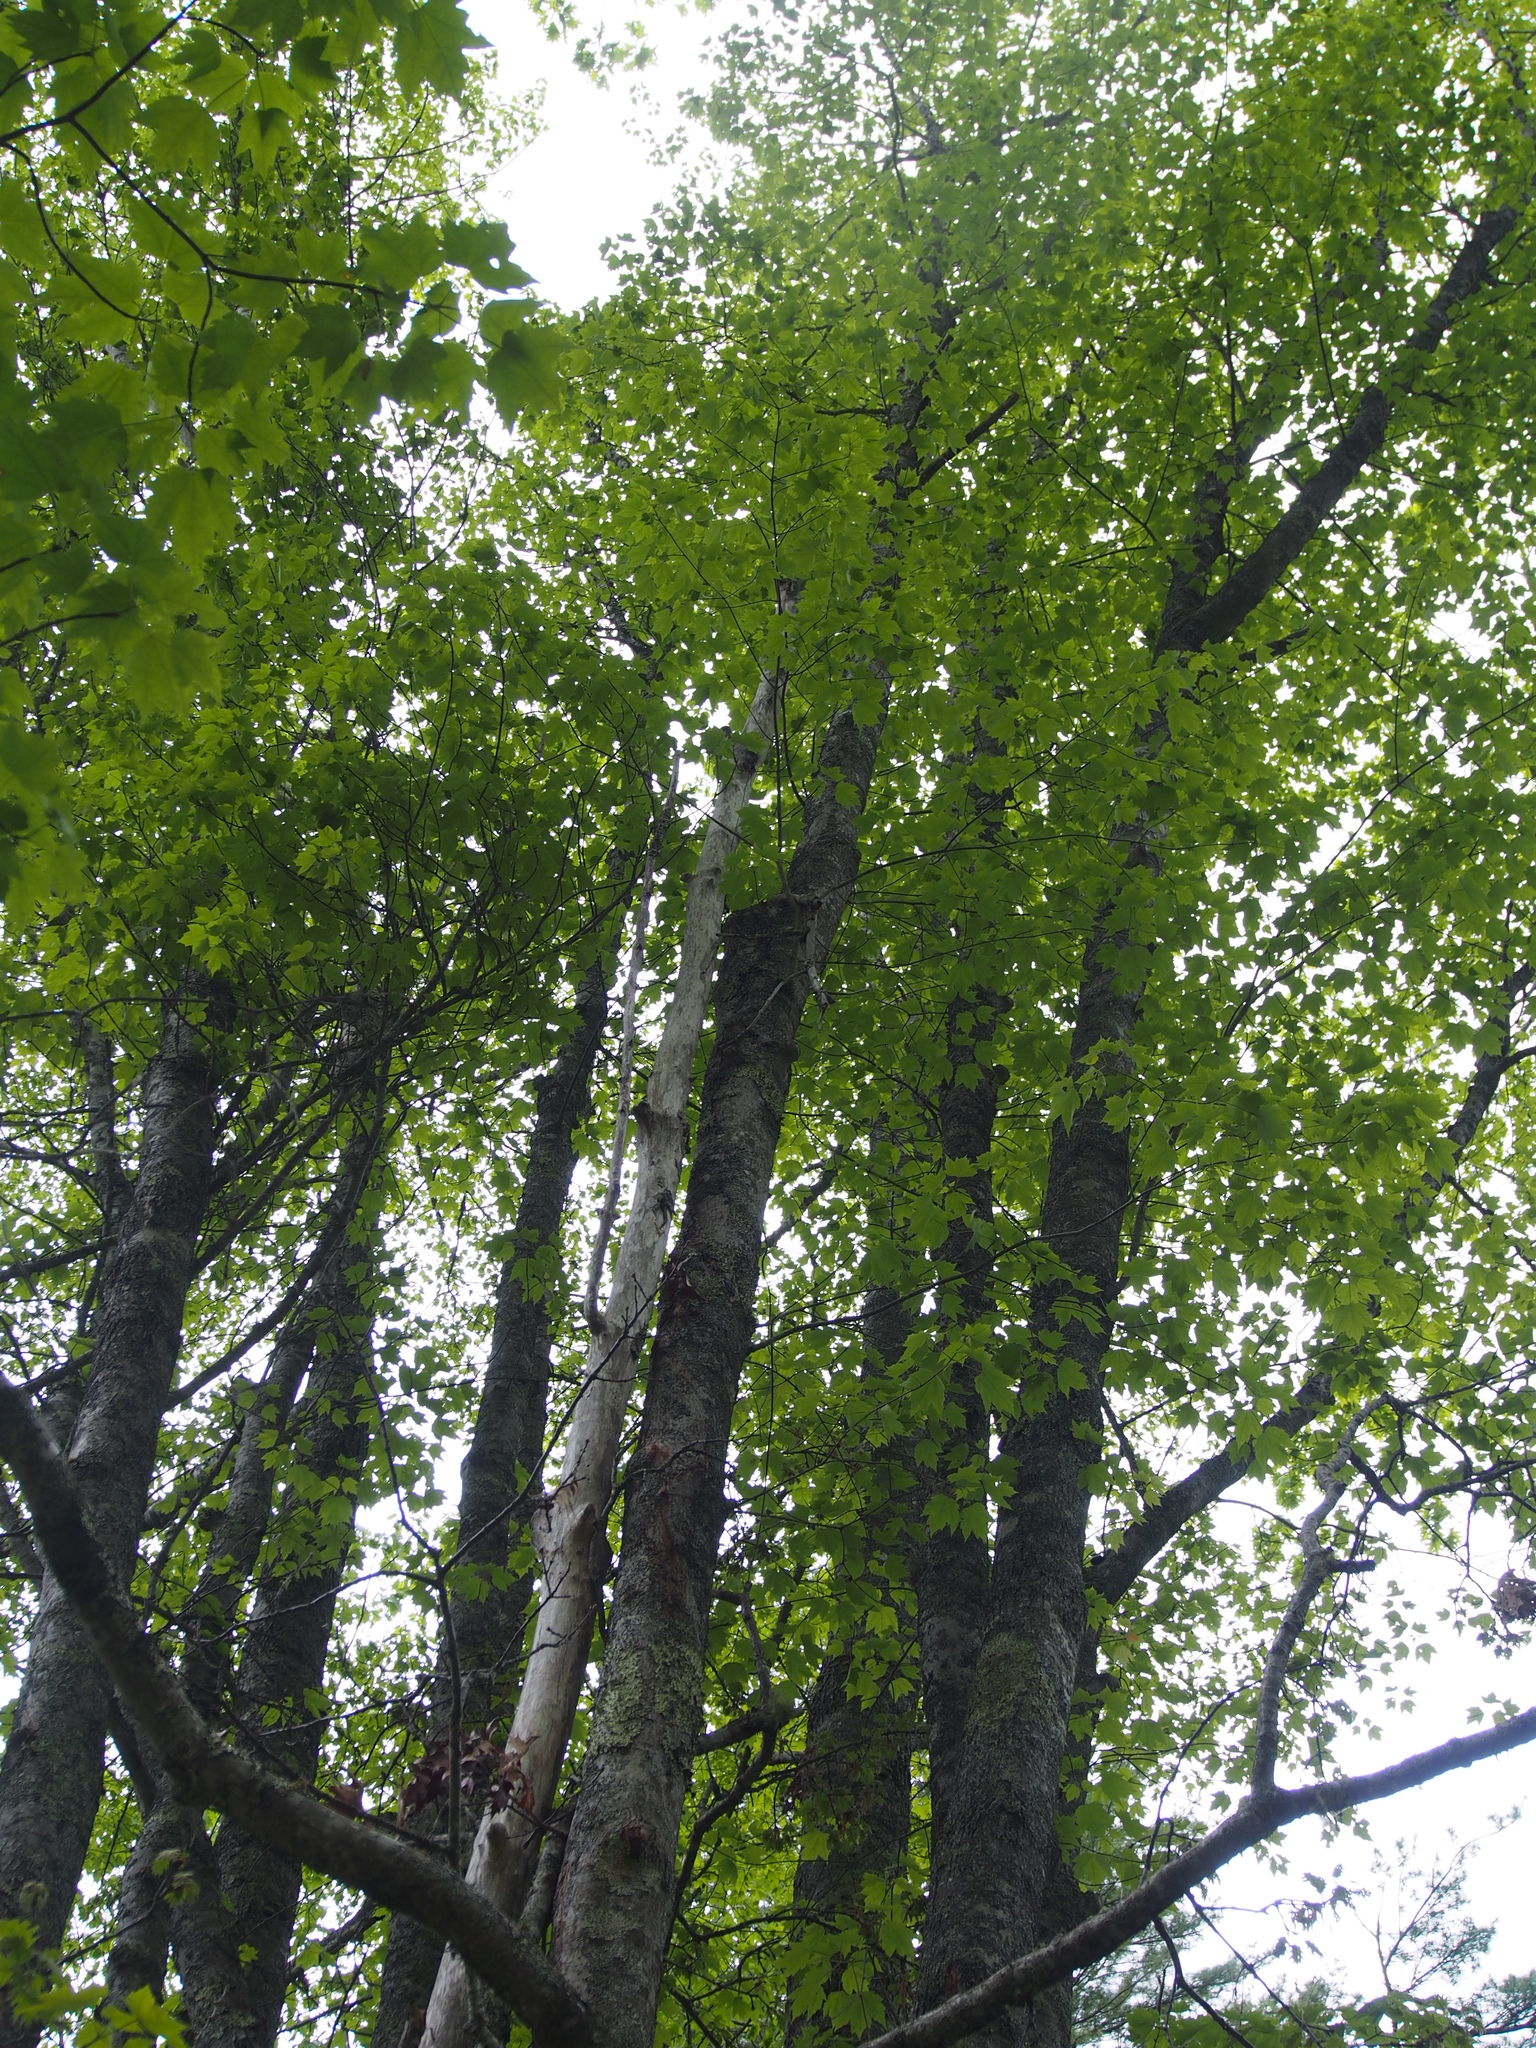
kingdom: Plantae
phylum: Tracheophyta
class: Magnoliopsida
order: Sapindales
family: Sapindaceae
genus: Acer
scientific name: Acer rubrum
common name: Red maple
